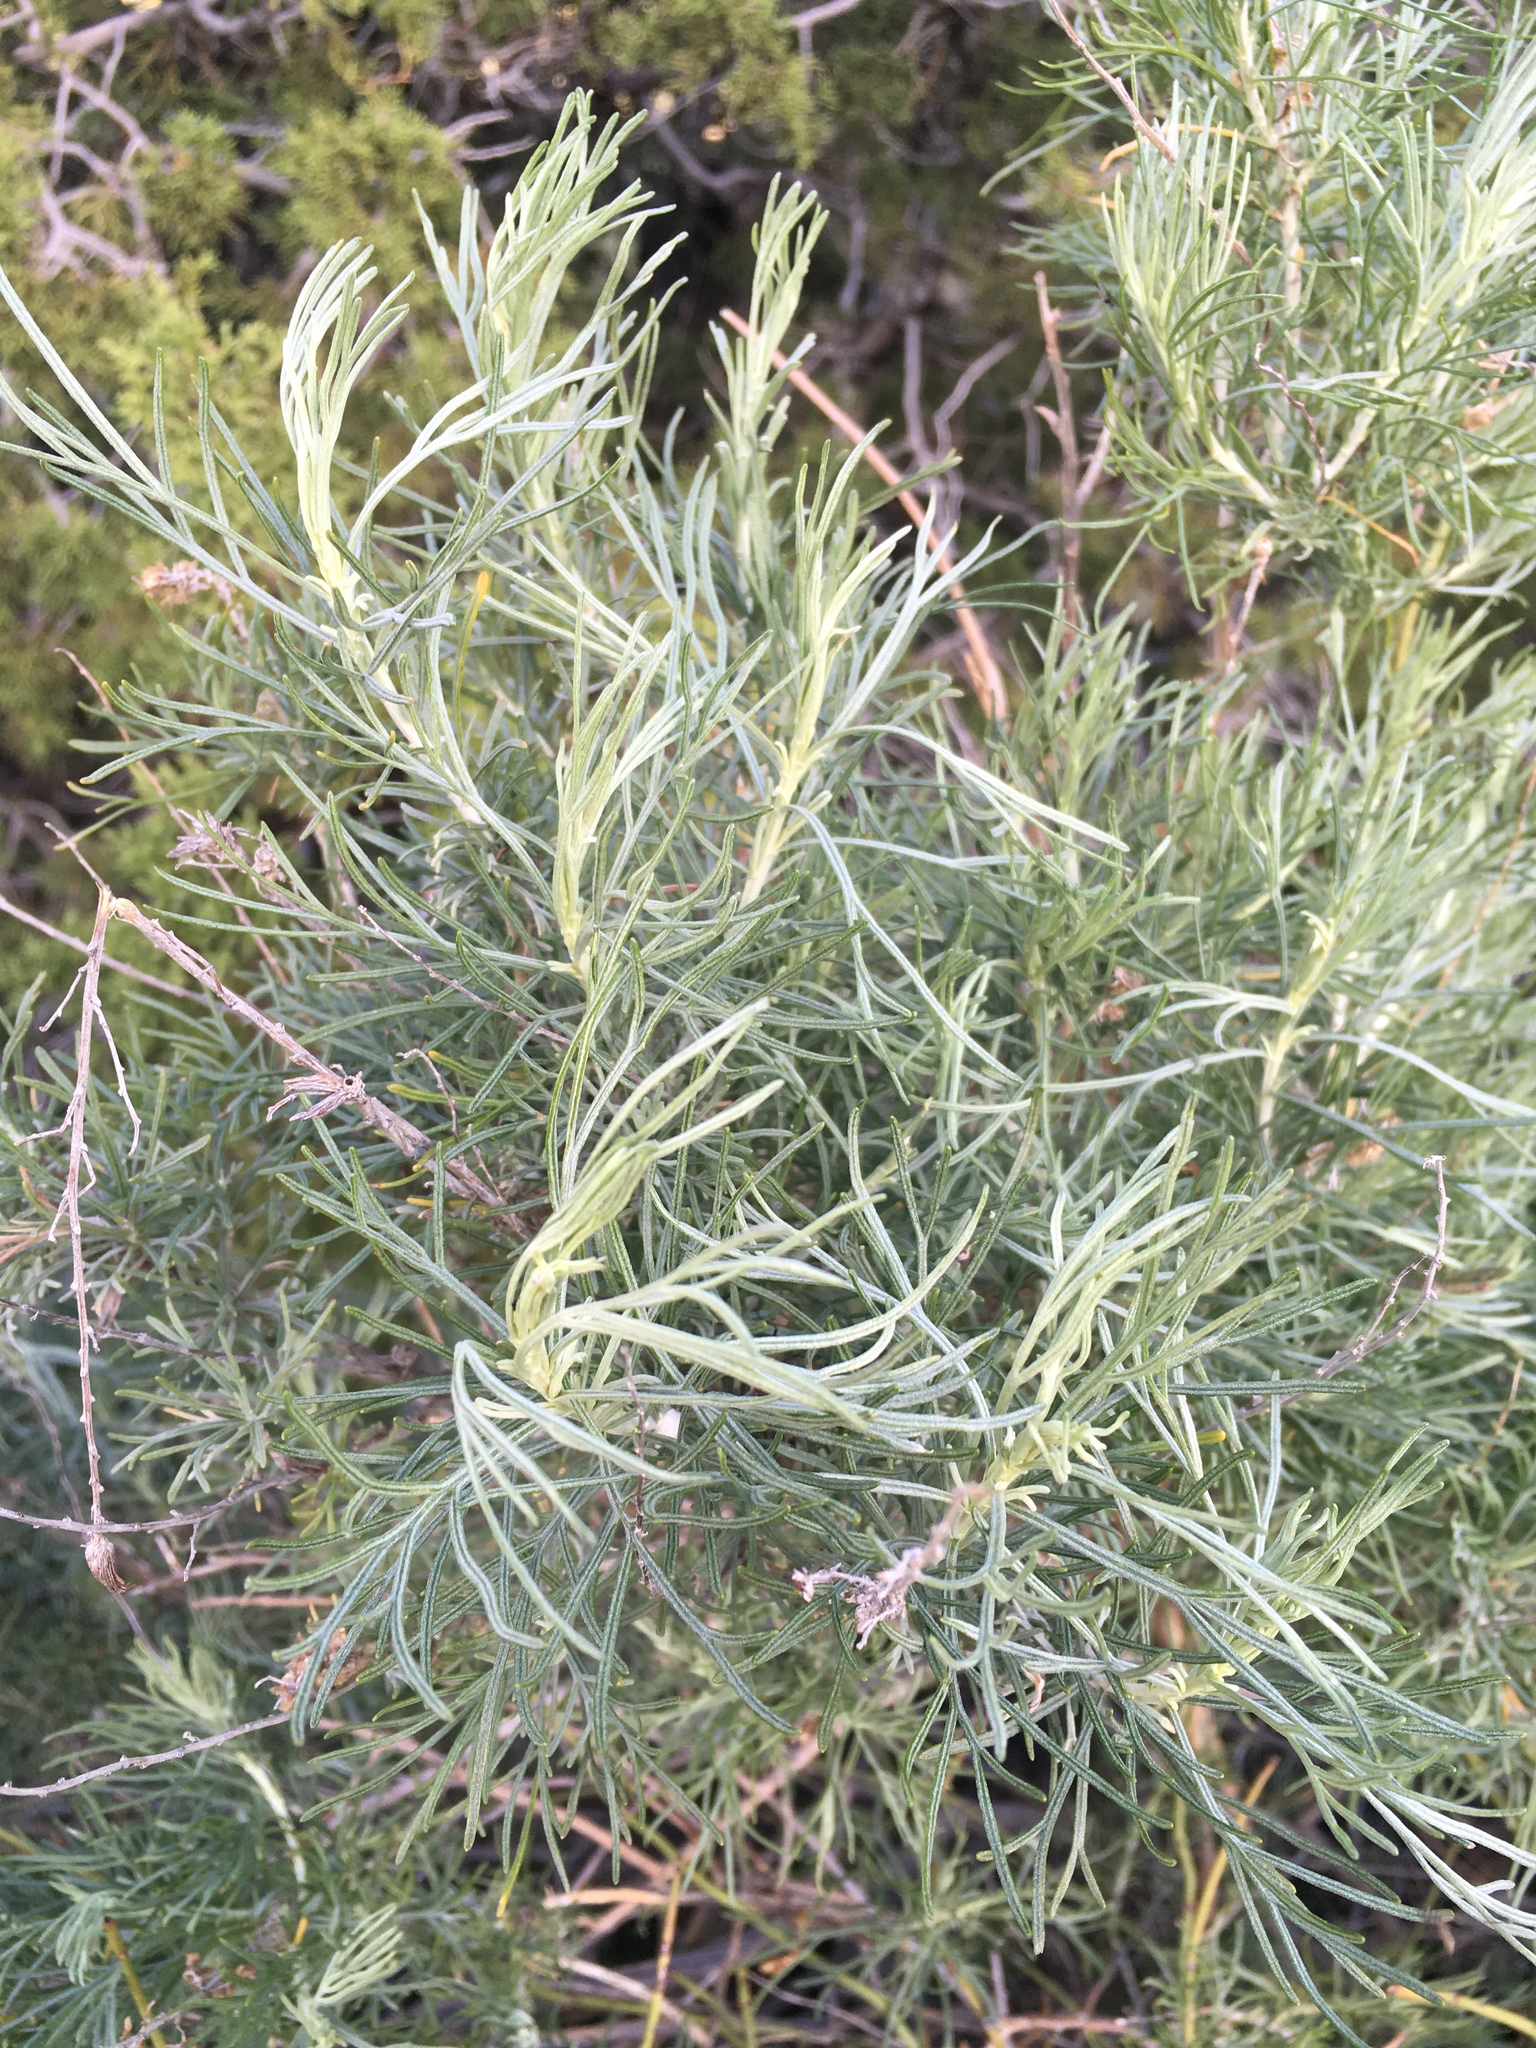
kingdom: Plantae
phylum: Tracheophyta
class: Magnoliopsida
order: Asterales
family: Asteraceae
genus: Artemisia
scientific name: Artemisia californica
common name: California sagebrush
